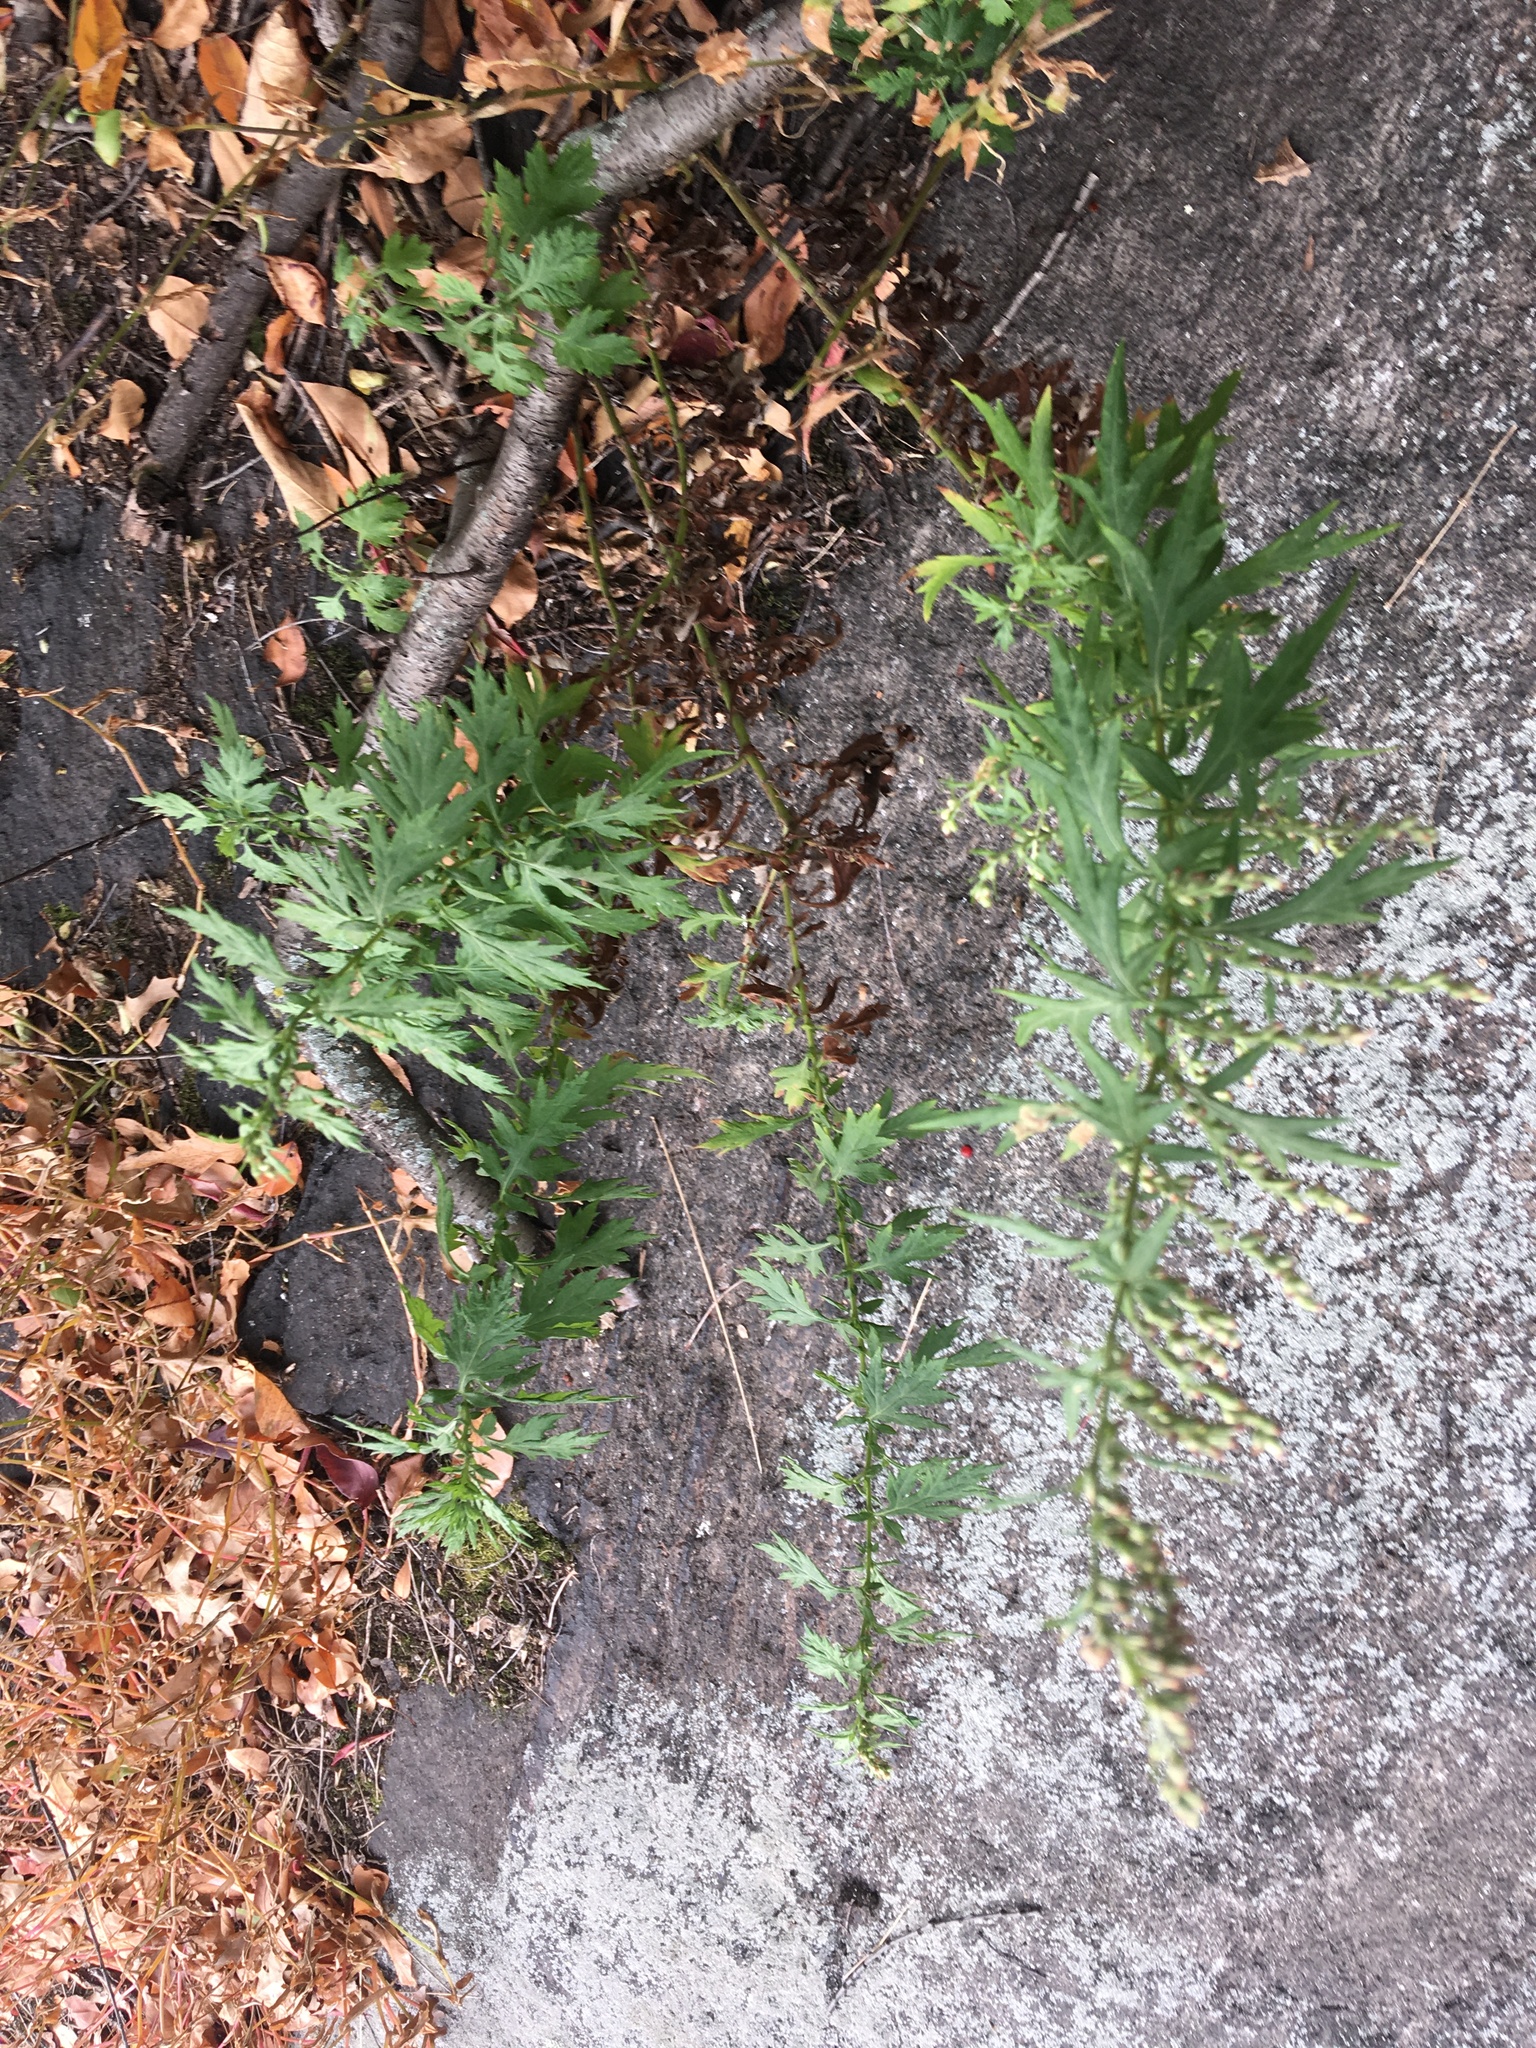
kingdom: Plantae
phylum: Tracheophyta
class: Magnoliopsida
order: Asterales
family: Asteraceae
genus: Artemisia
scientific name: Artemisia vulgaris
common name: Mugwort
